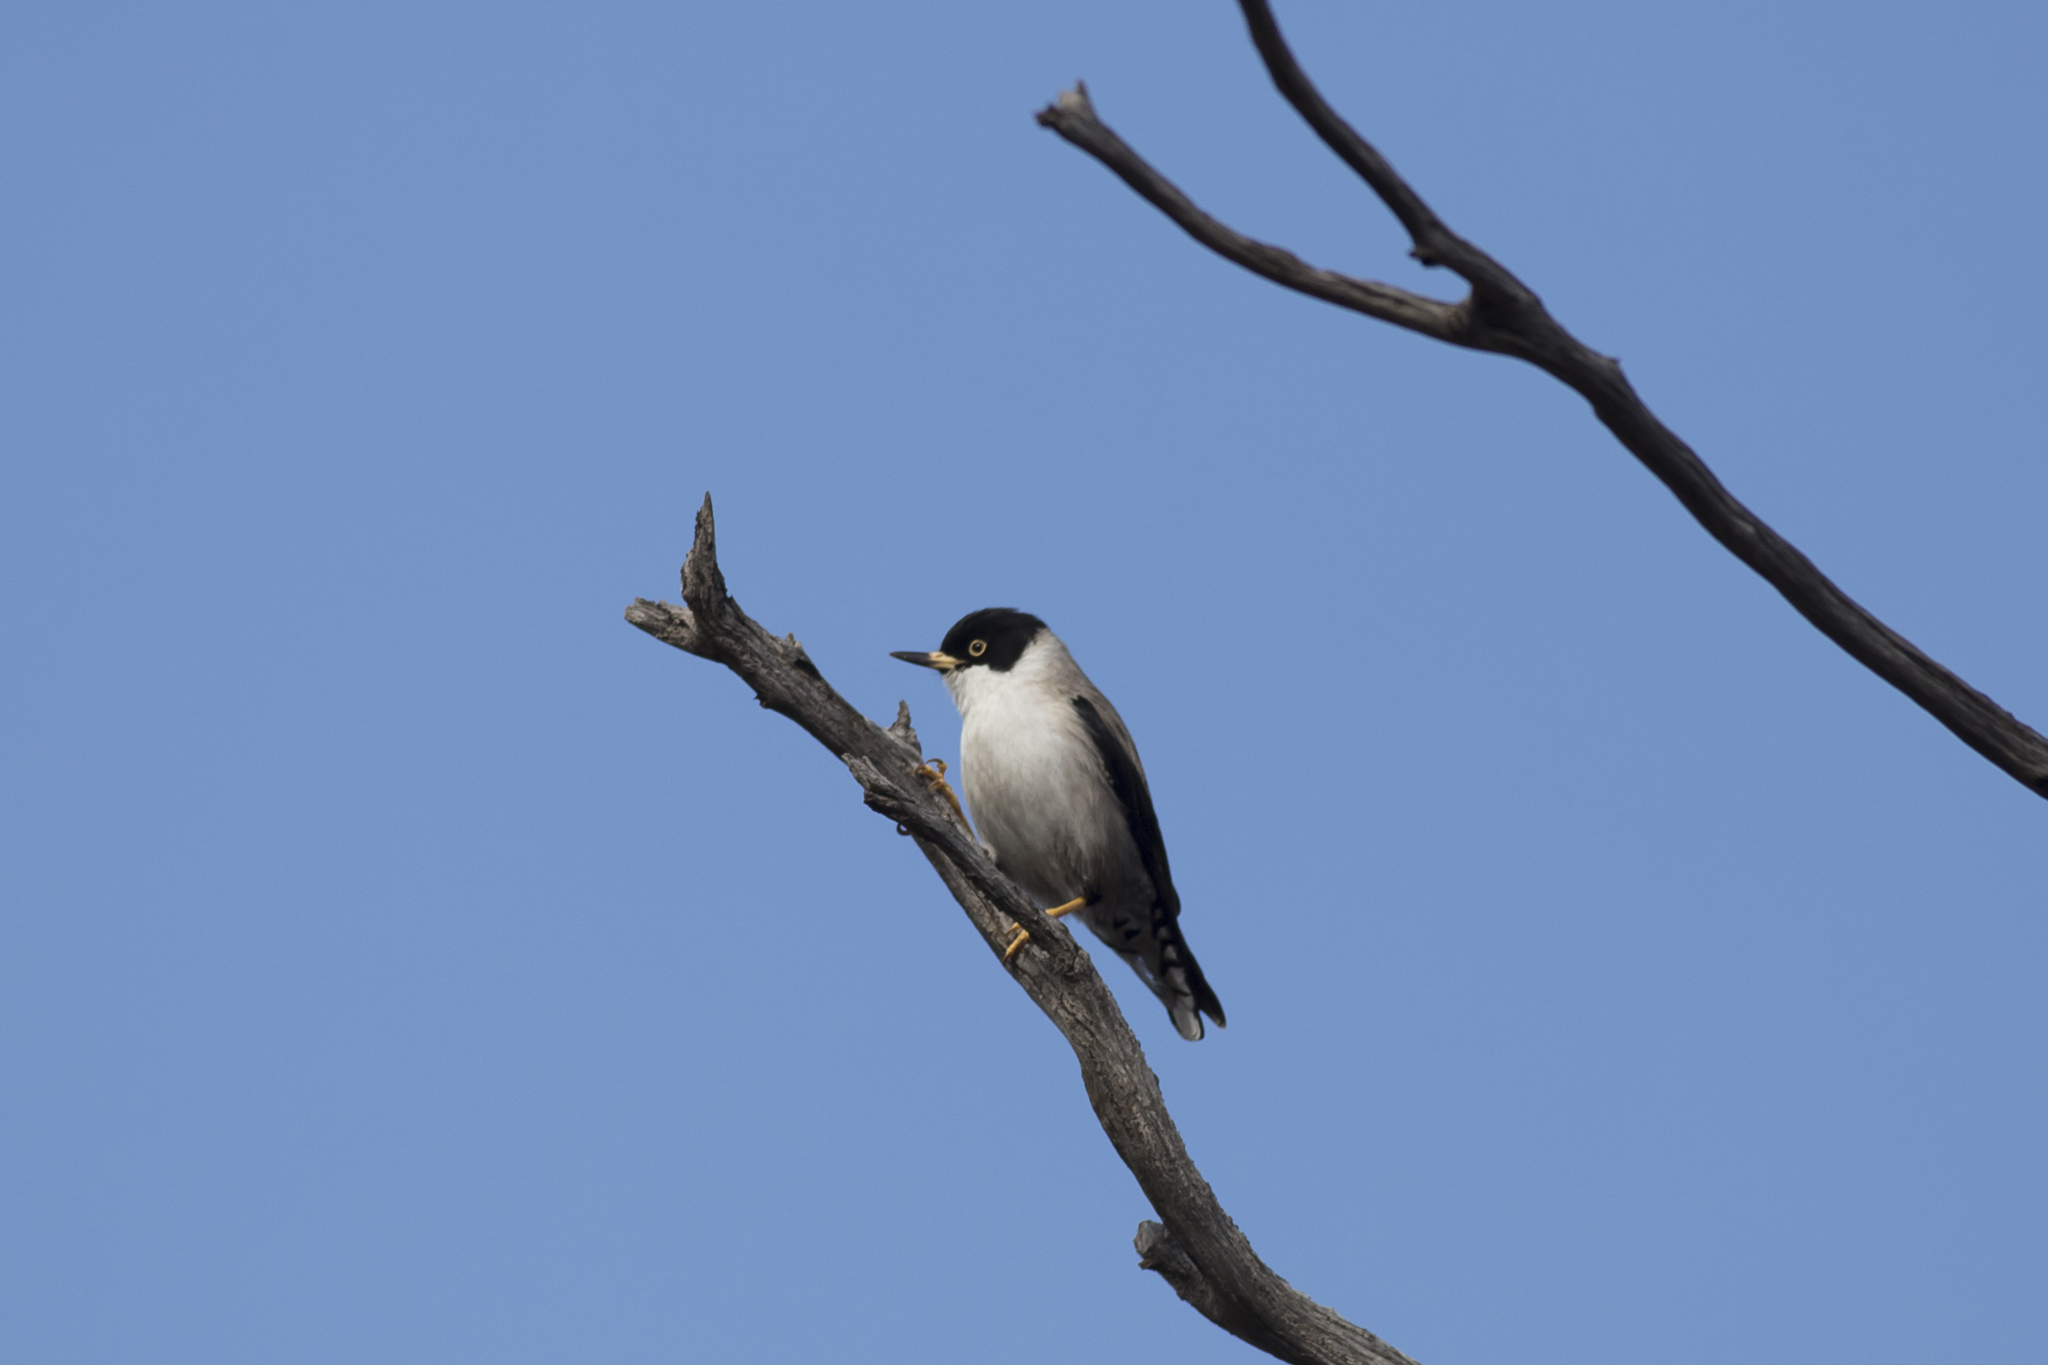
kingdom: Animalia
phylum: Chordata
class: Aves
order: Passeriformes
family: Neosittidae
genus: Daphoenositta
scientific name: Daphoenositta chrysoptera
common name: Varied sittella
